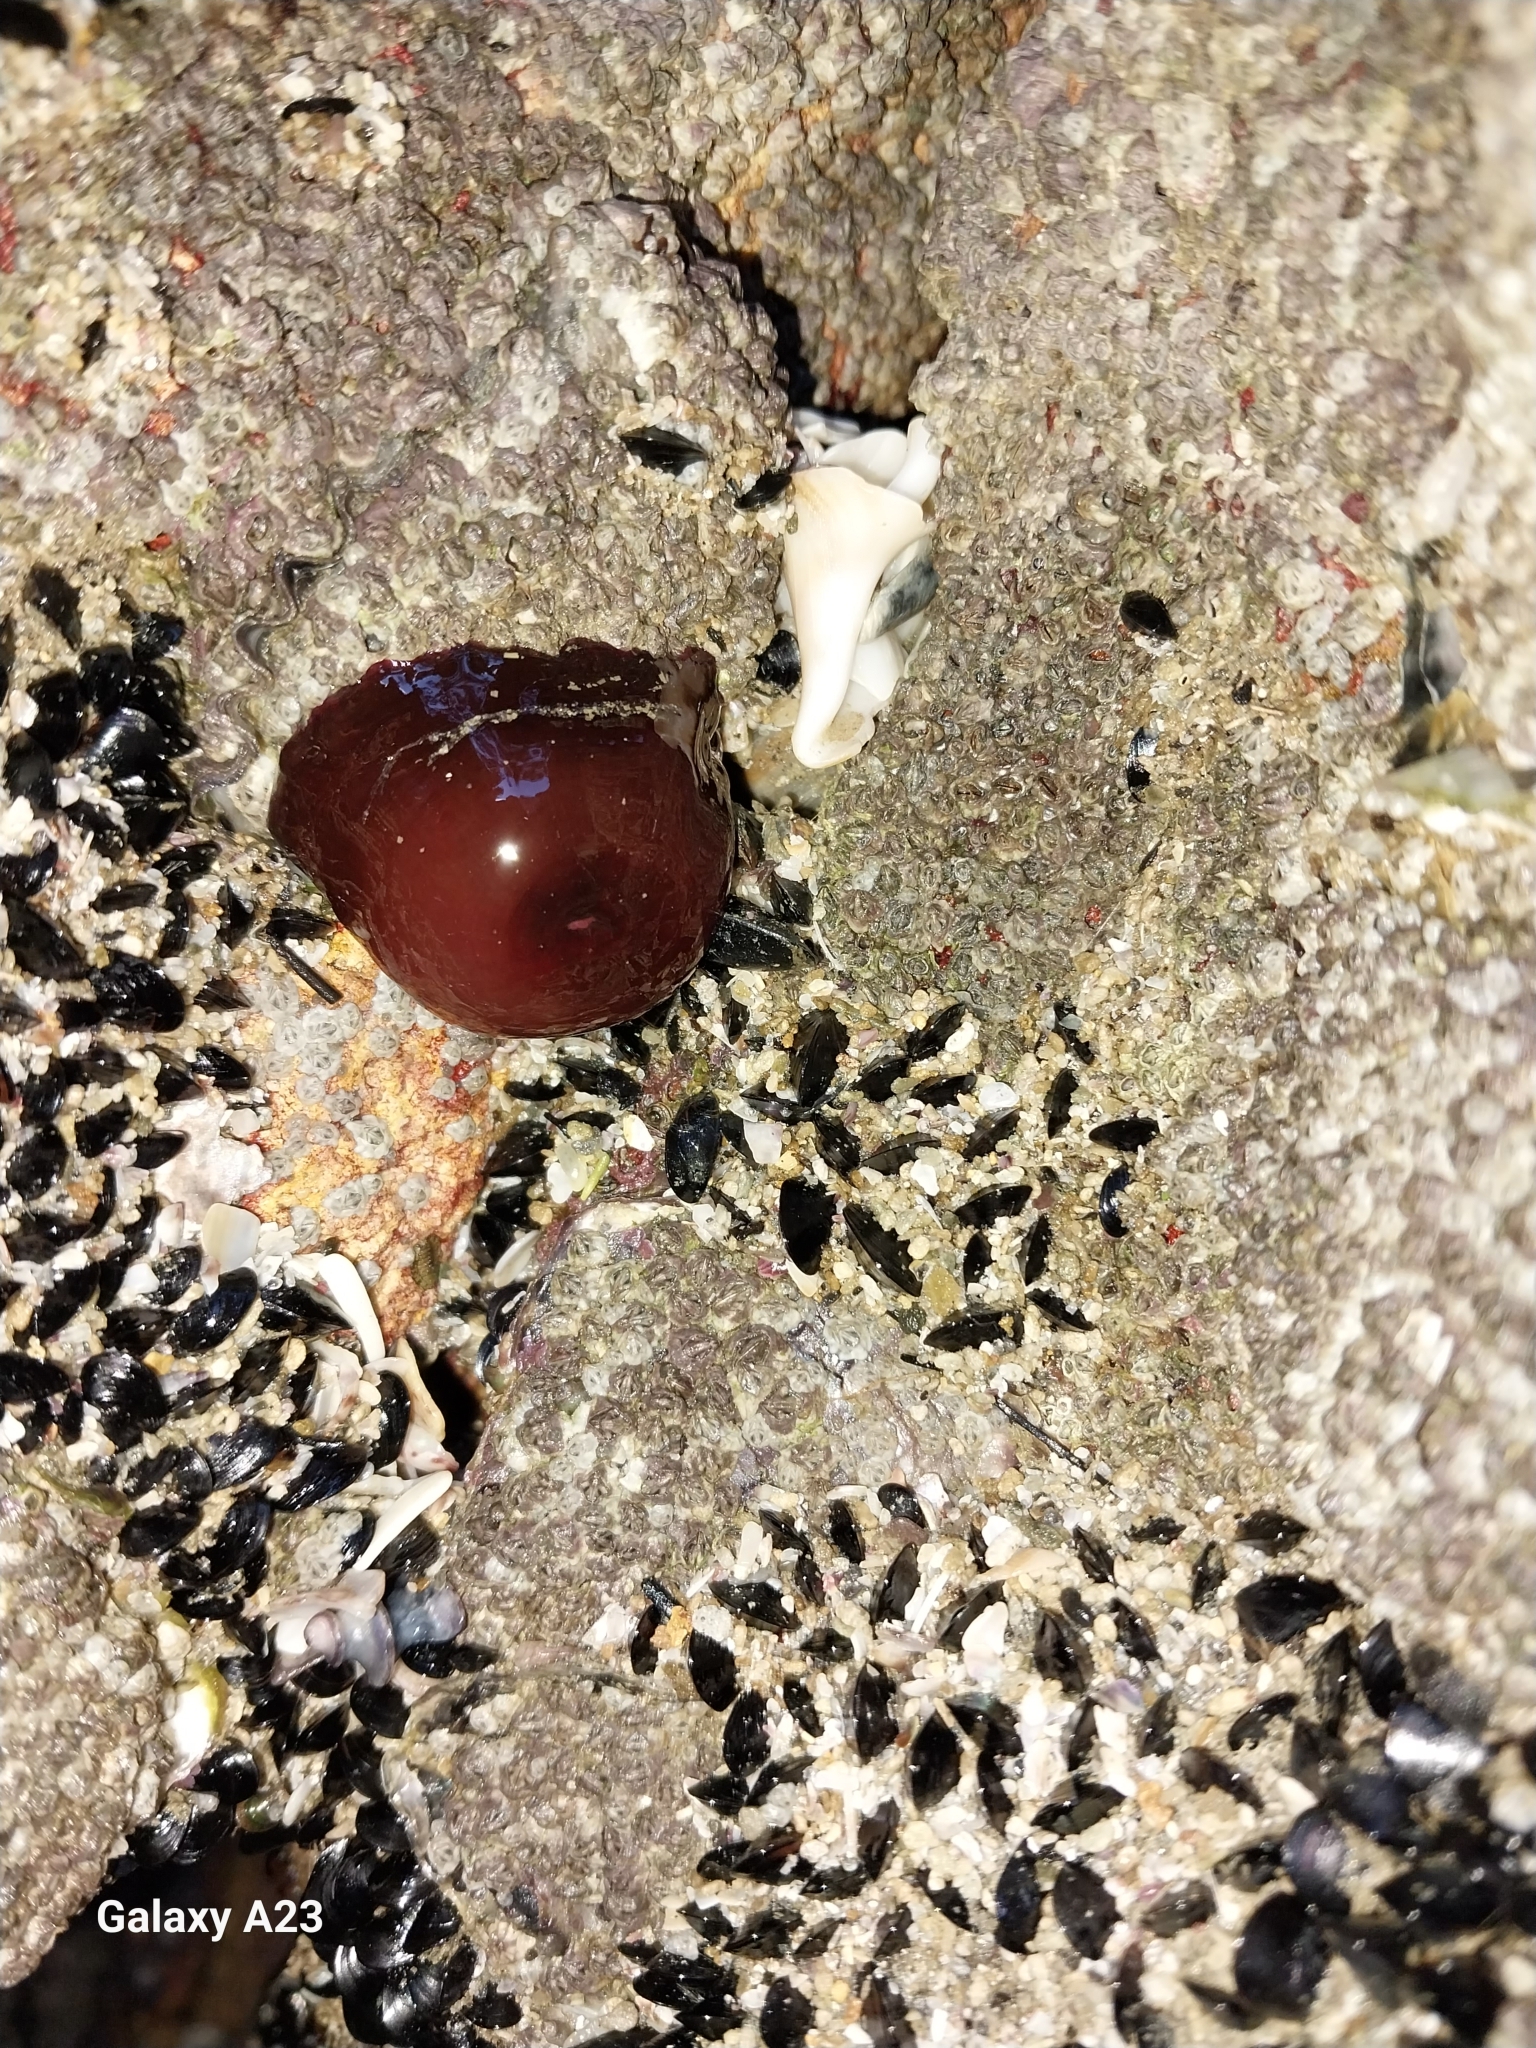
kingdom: Animalia
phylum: Cnidaria
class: Anthozoa
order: Actiniaria
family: Actiniidae
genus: Actinia
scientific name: Actinia tenebrosa
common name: Waratah anemone
